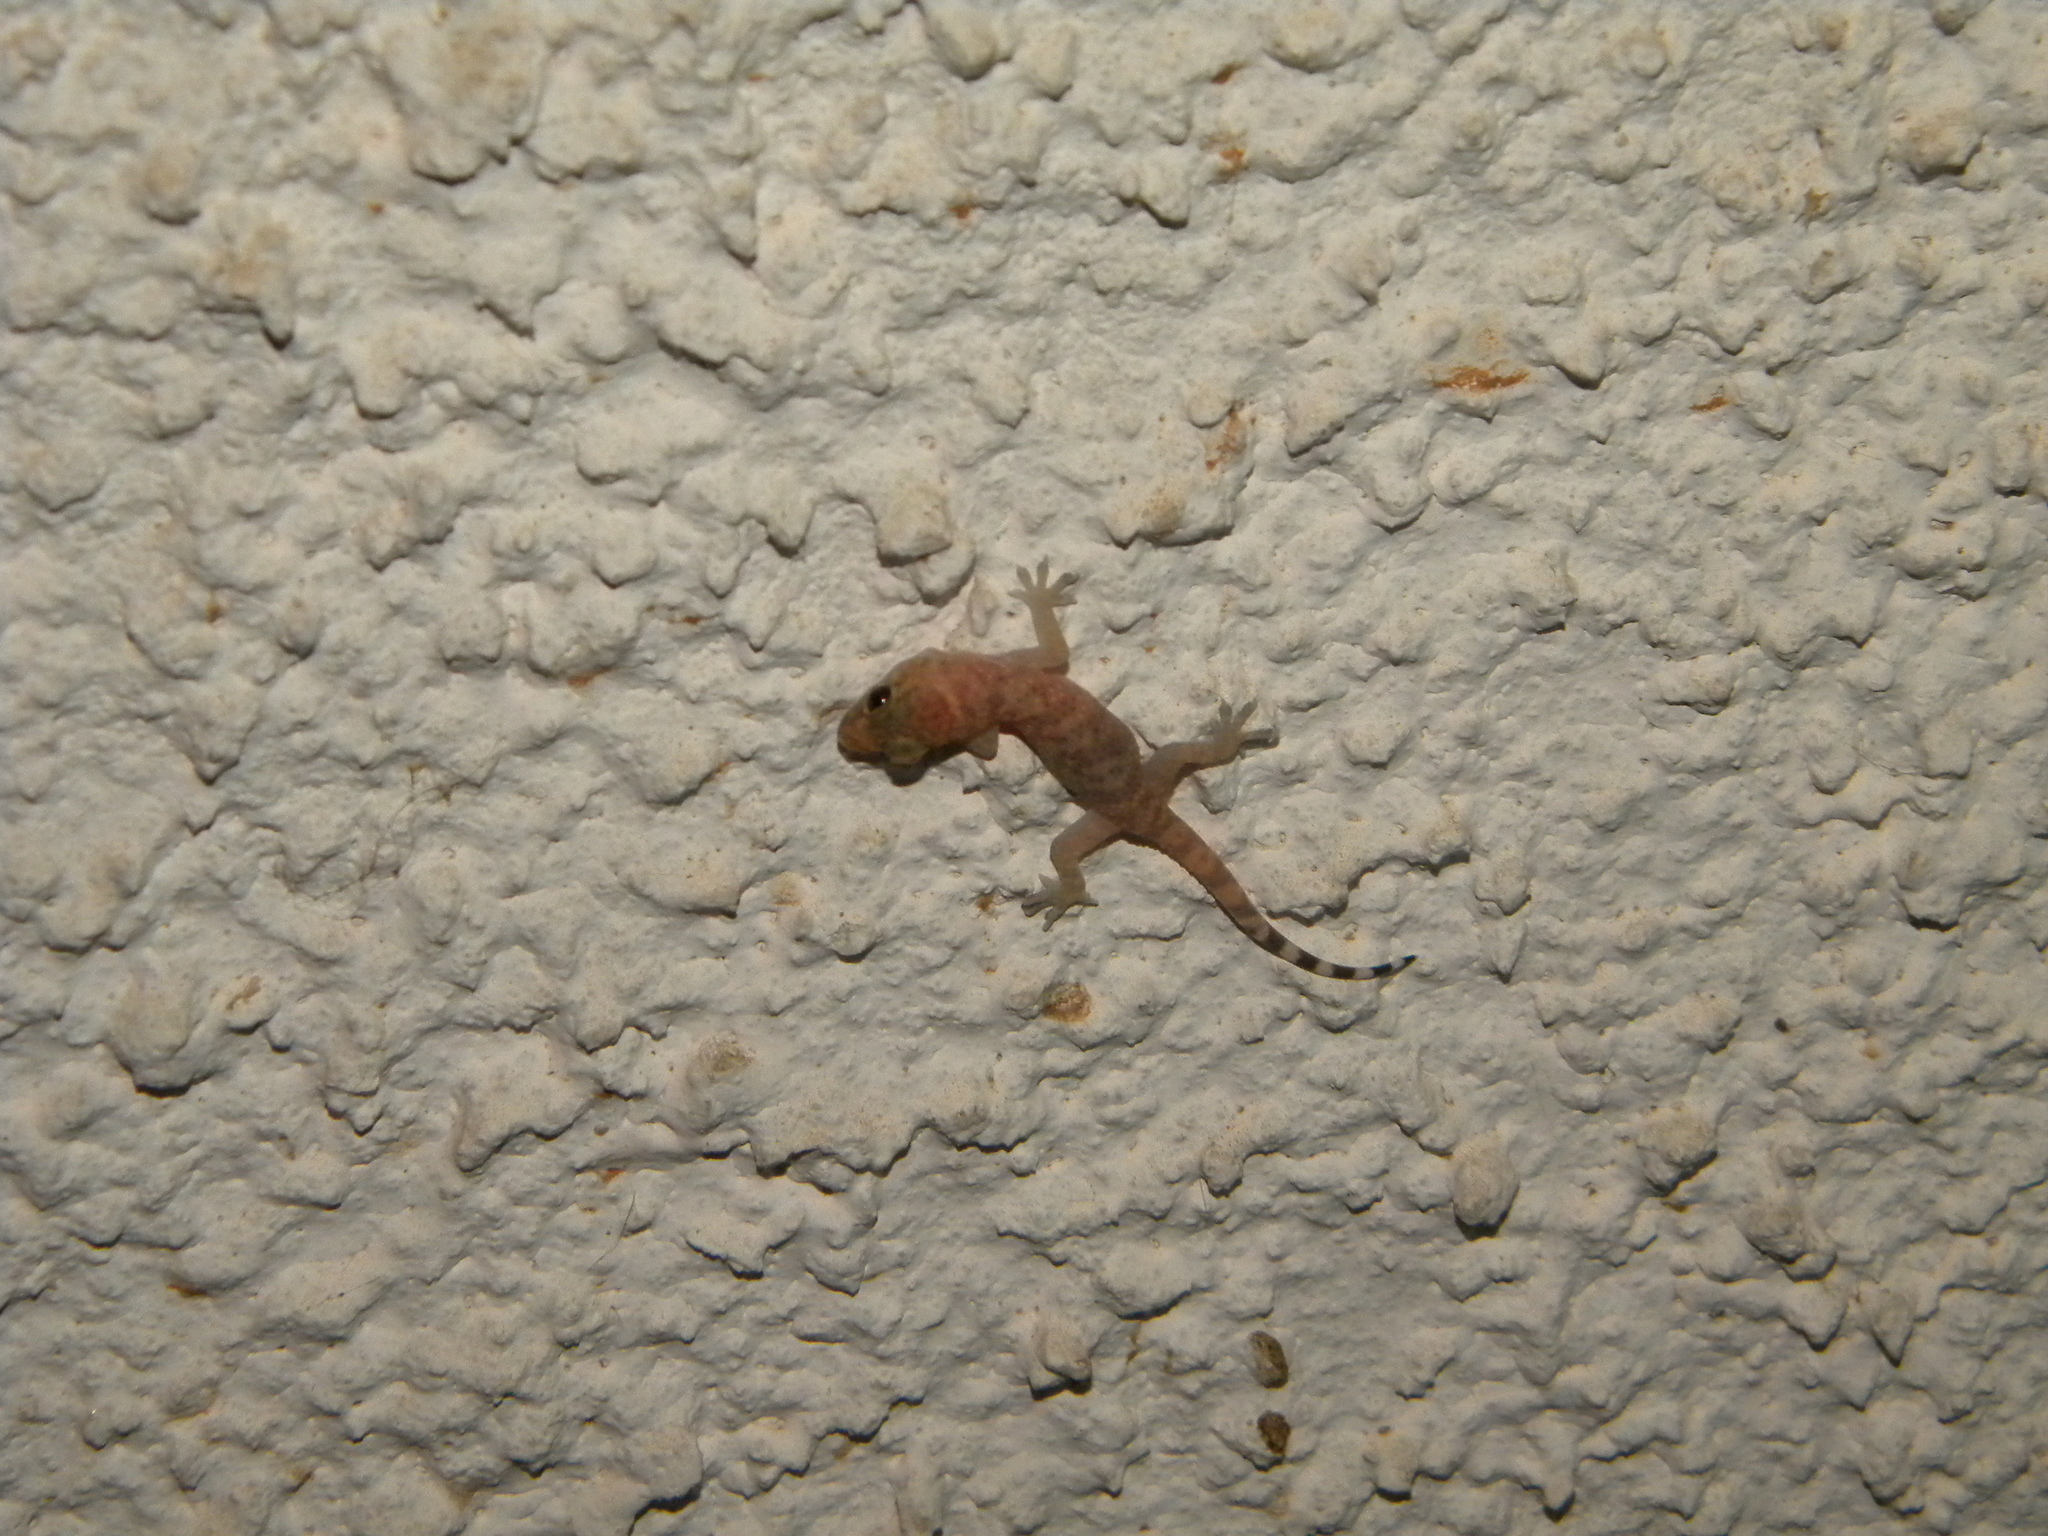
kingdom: Animalia
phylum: Chordata
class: Squamata
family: Gekkonidae
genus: Hemidactylus
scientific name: Hemidactylus turcicus
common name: Turkish gecko
